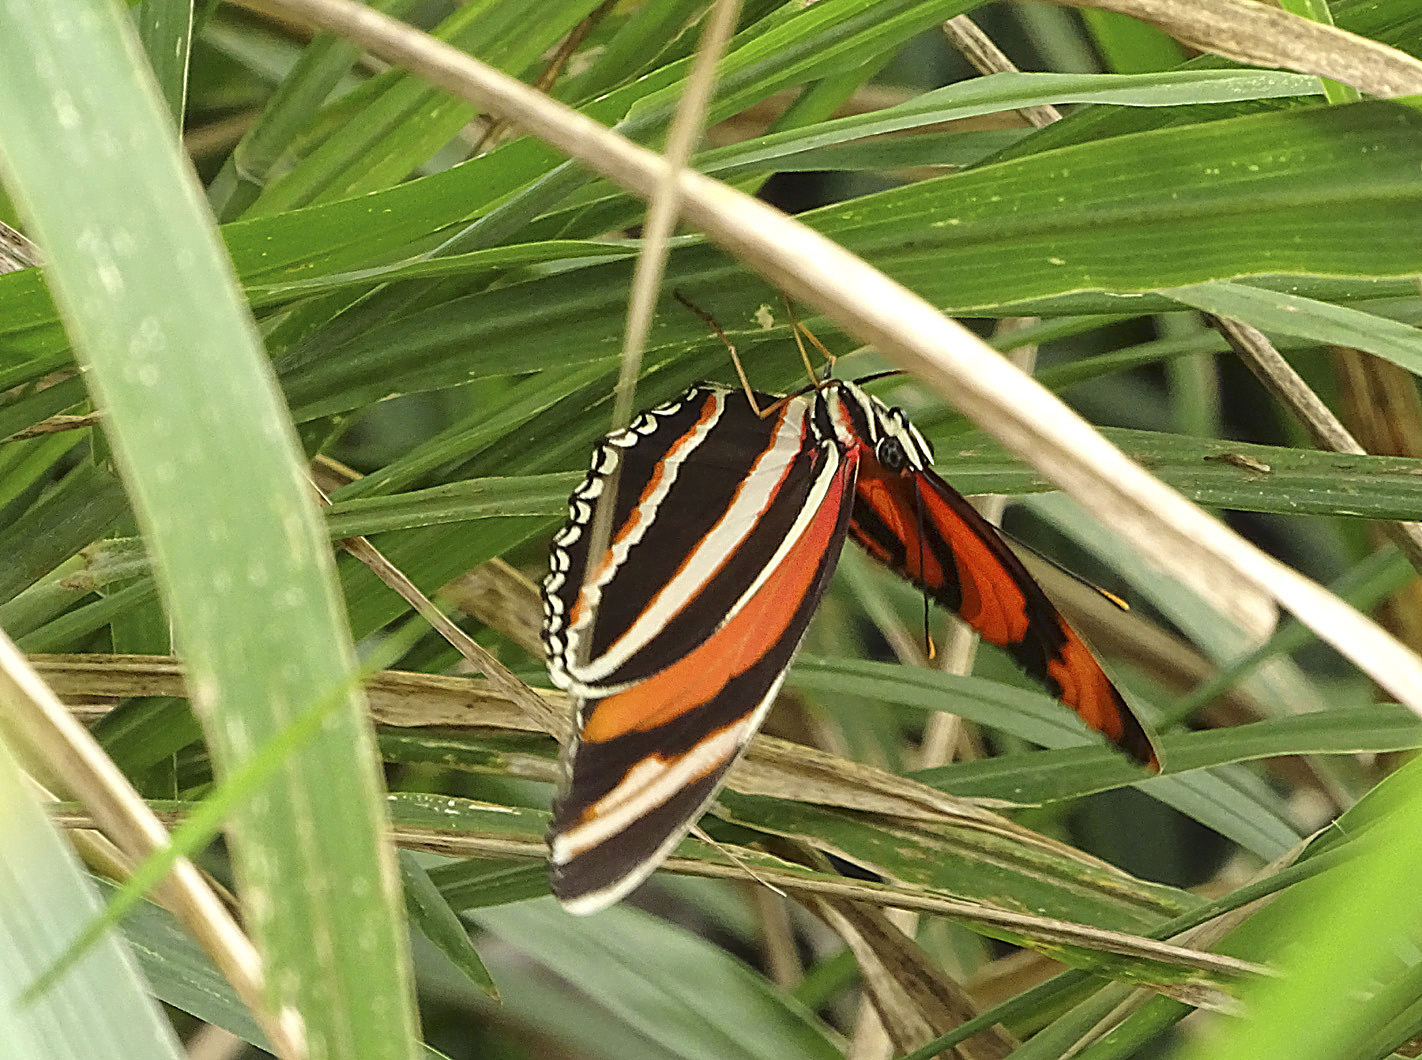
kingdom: Animalia
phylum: Arthropoda
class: Insecta
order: Lepidoptera
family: Nymphalidae
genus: Dryadula
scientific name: Dryadula phaetusa
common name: Banded orange heliconian
